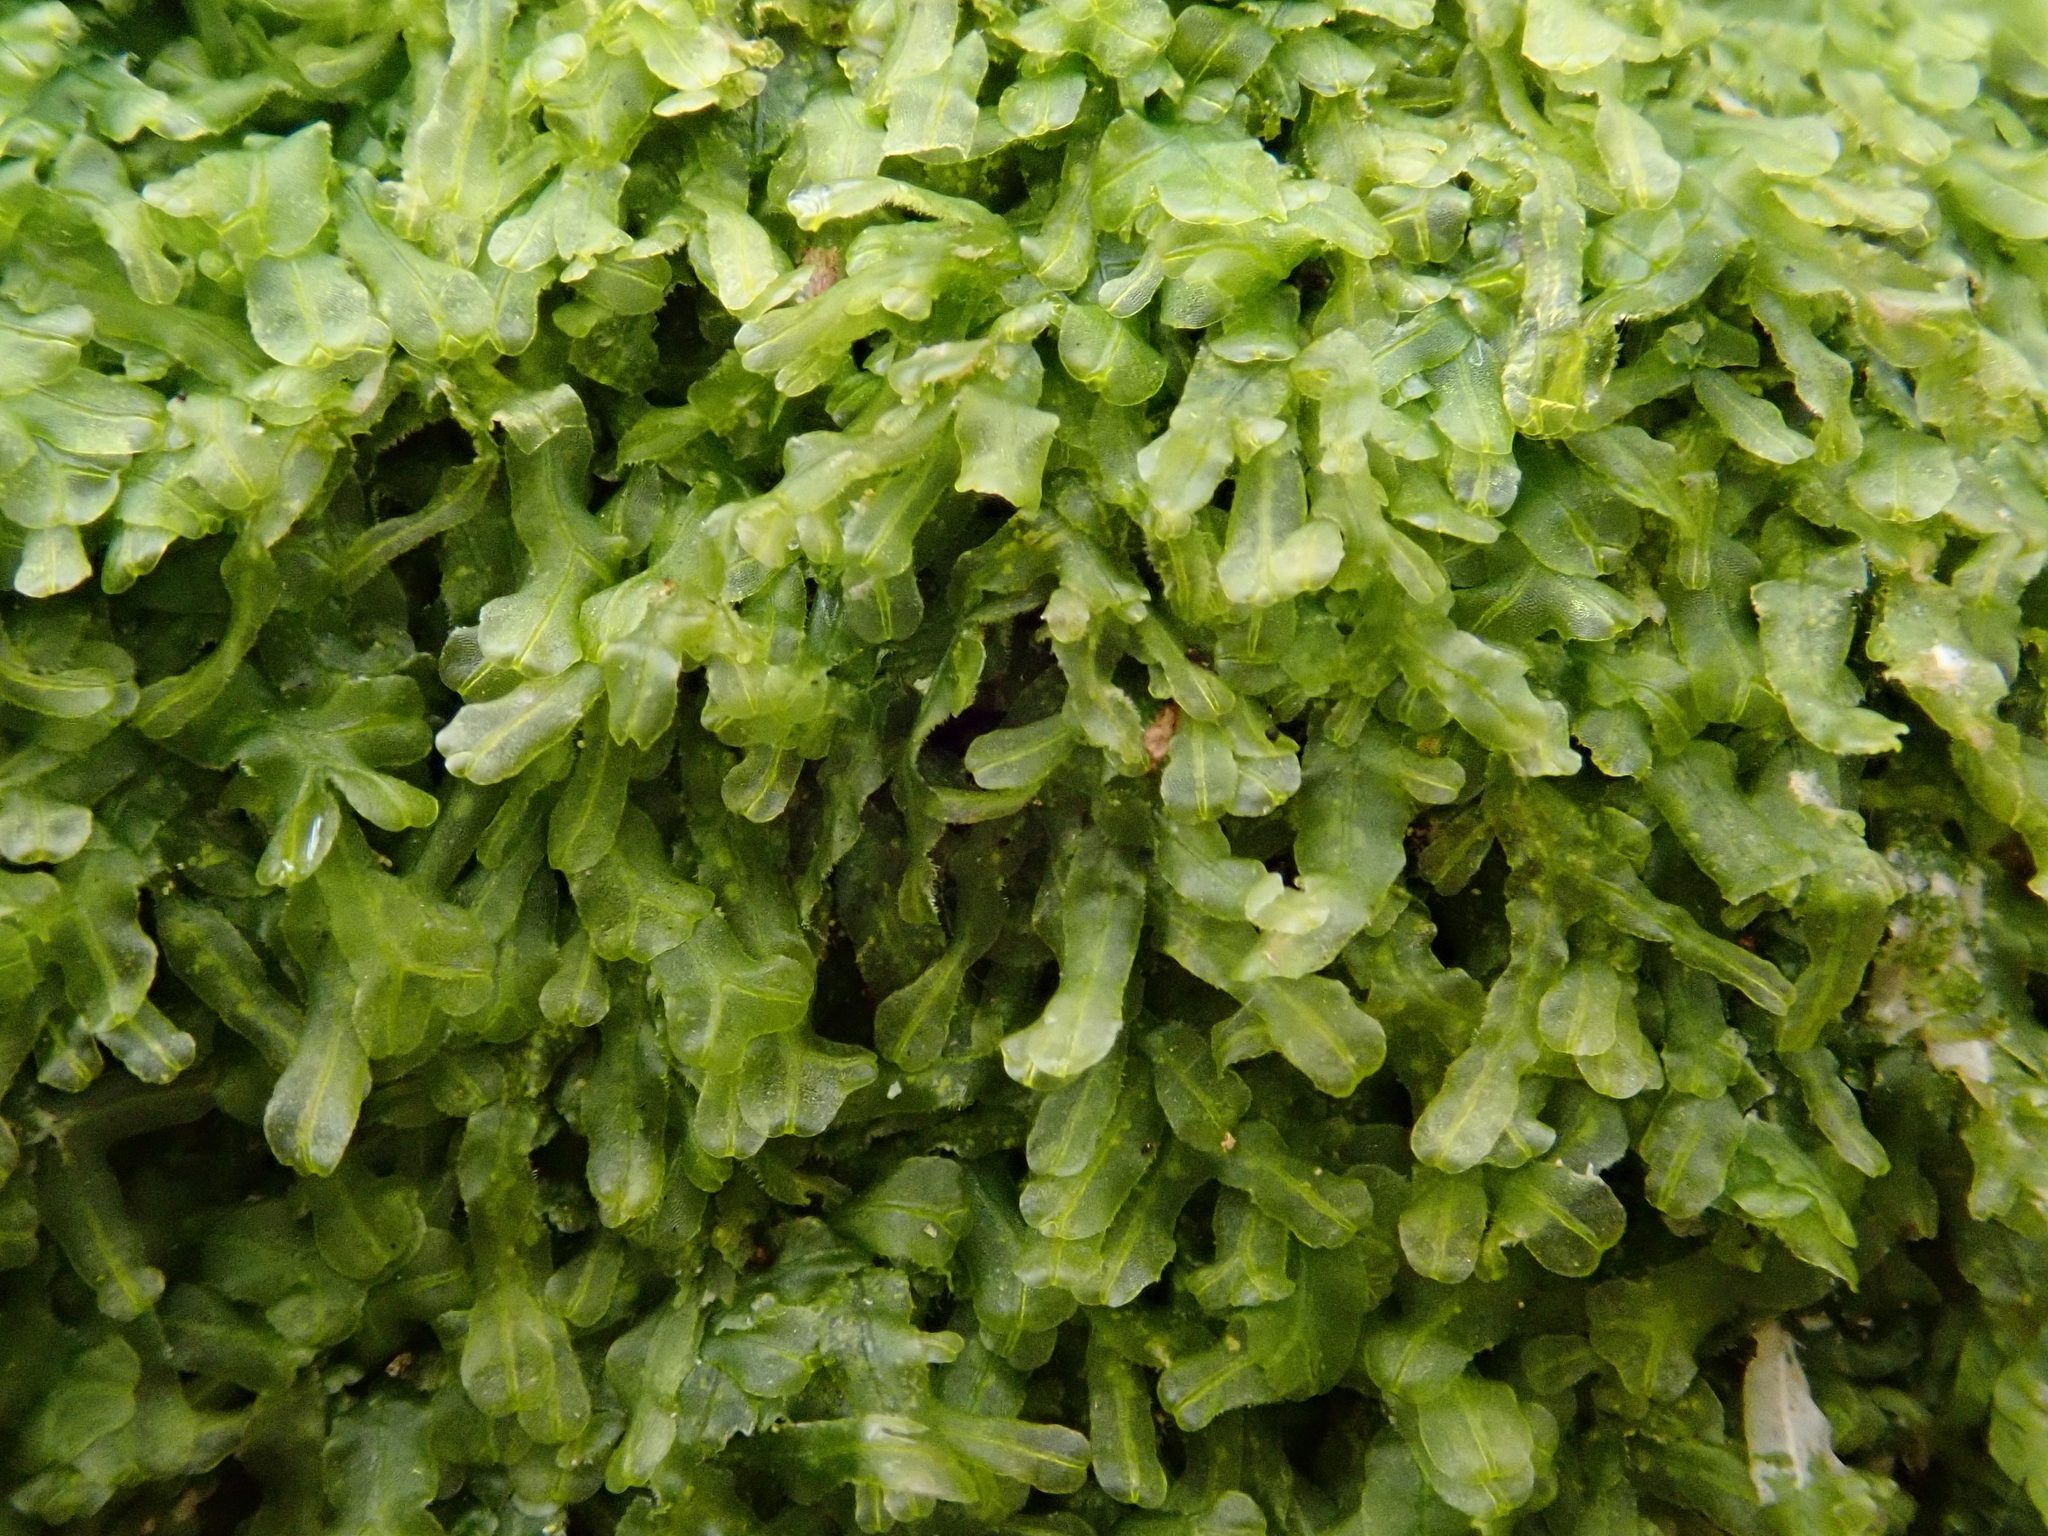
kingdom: Plantae
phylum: Marchantiophyta
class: Jungermanniopsida
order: Metzgeriales
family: Metzgeriaceae
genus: Metzgeria
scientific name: Metzgeria conjugata
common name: Rock veilwort
